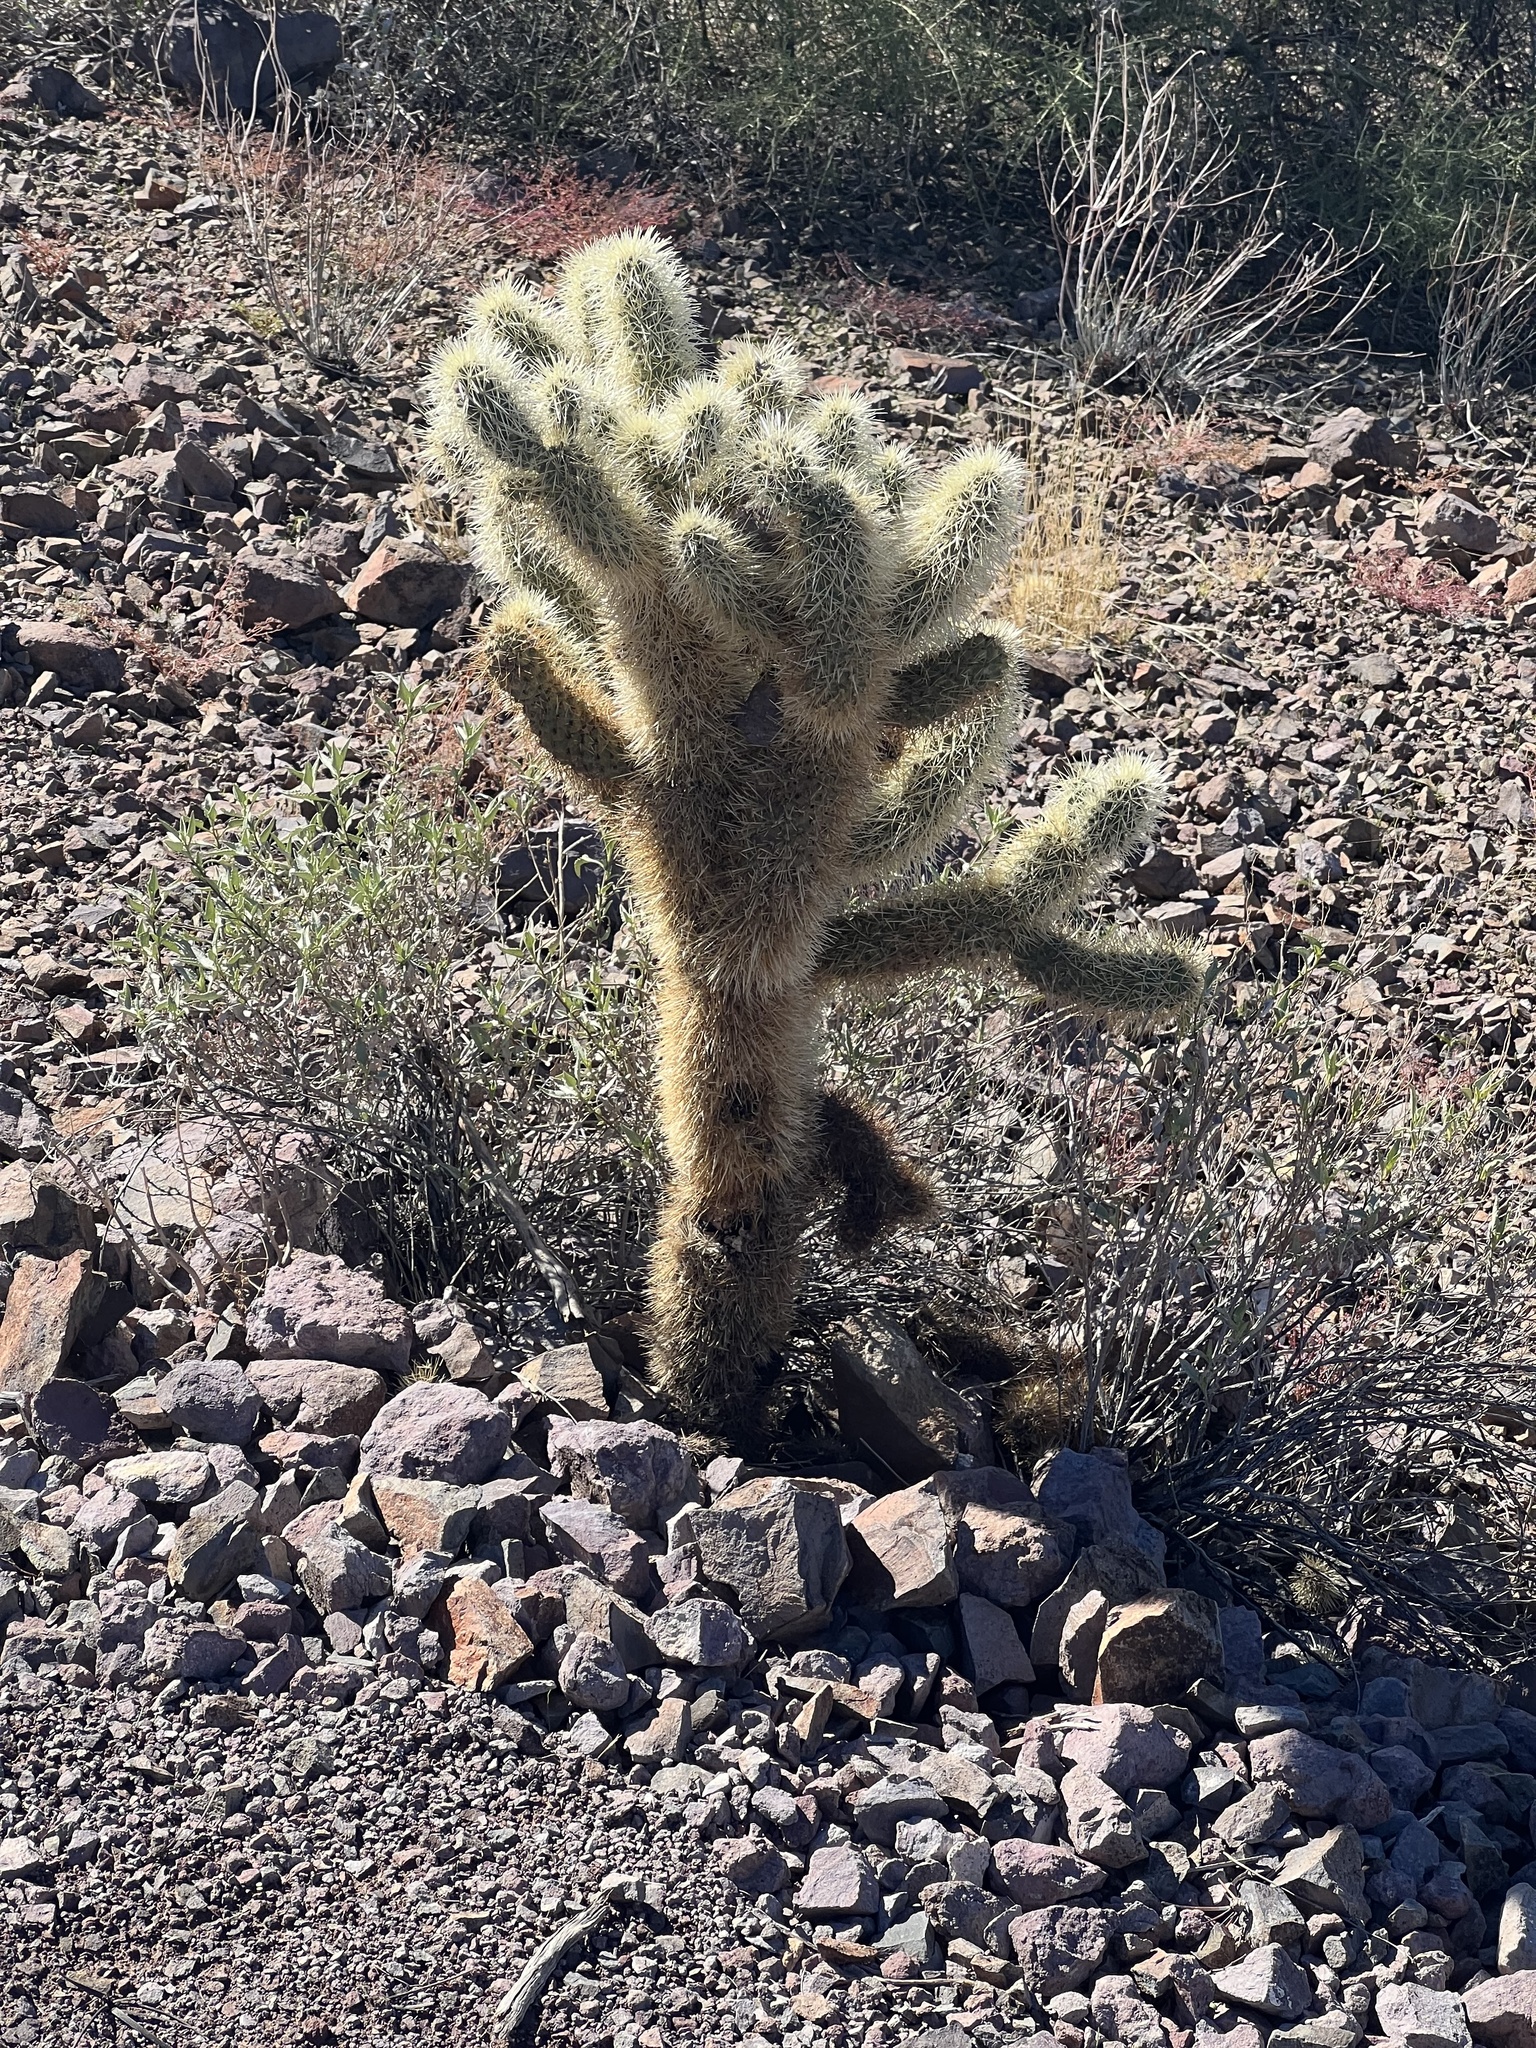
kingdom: Plantae
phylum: Tracheophyta
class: Magnoliopsida
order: Caryophyllales
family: Cactaceae
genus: Cylindropuntia
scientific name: Cylindropuntia fosbergii
